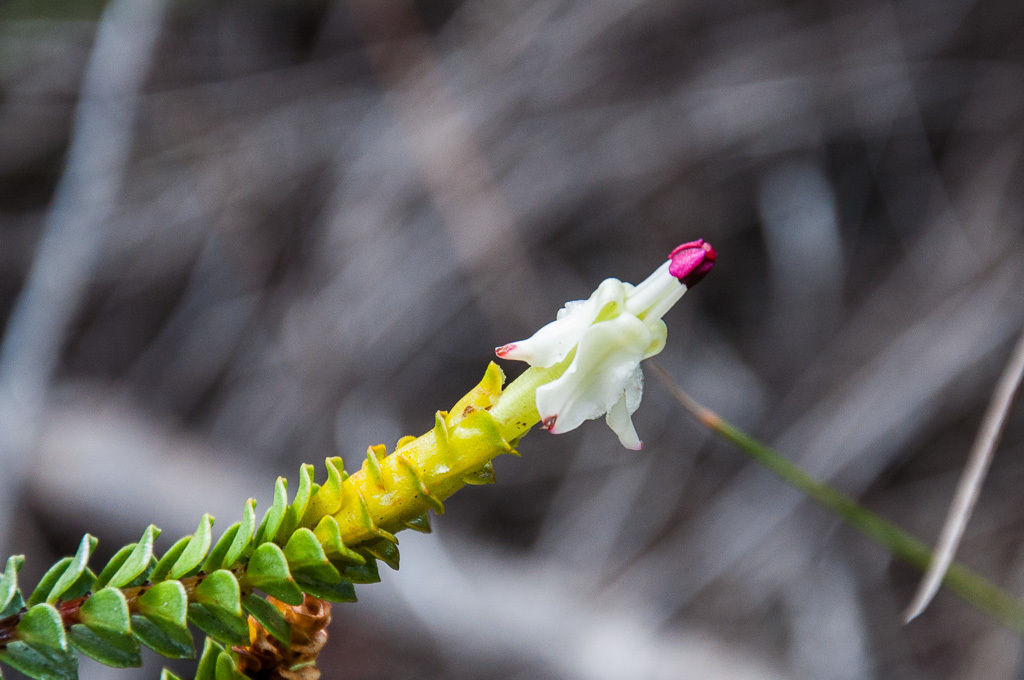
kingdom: Plantae
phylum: Tracheophyta
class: Magnoliopsida
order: Myrtales
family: Penaeaceae
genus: Saltera
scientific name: Saltera sarcocolla
